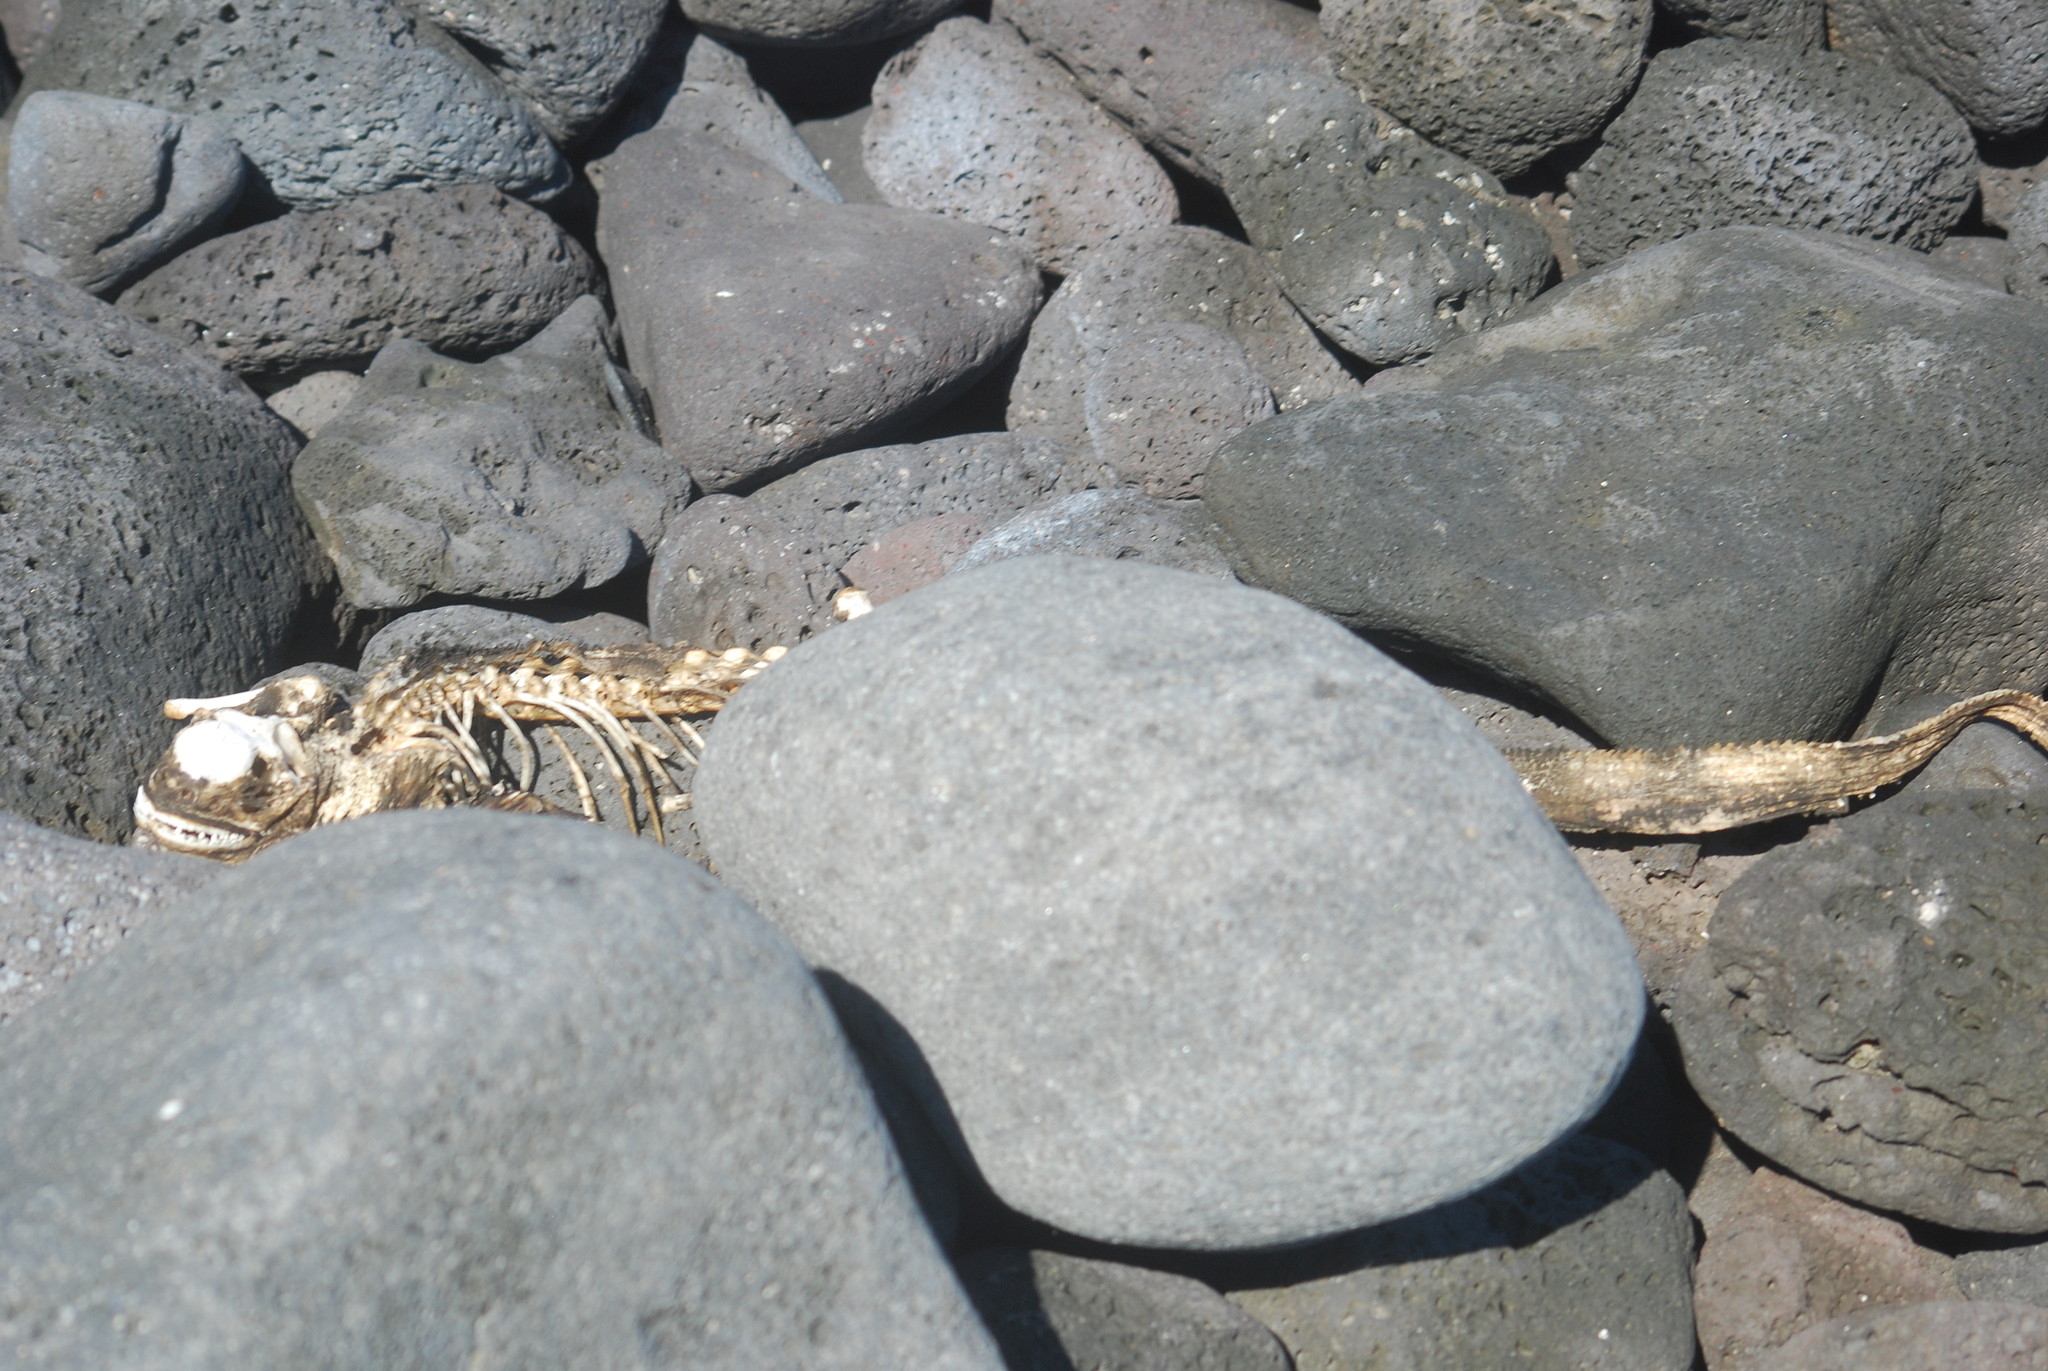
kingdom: Animalia
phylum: Chordata
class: Squamata
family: Iguanidae
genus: Amblyrhynchus
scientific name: Amblyrhynchus cristatus
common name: Marine iguana
